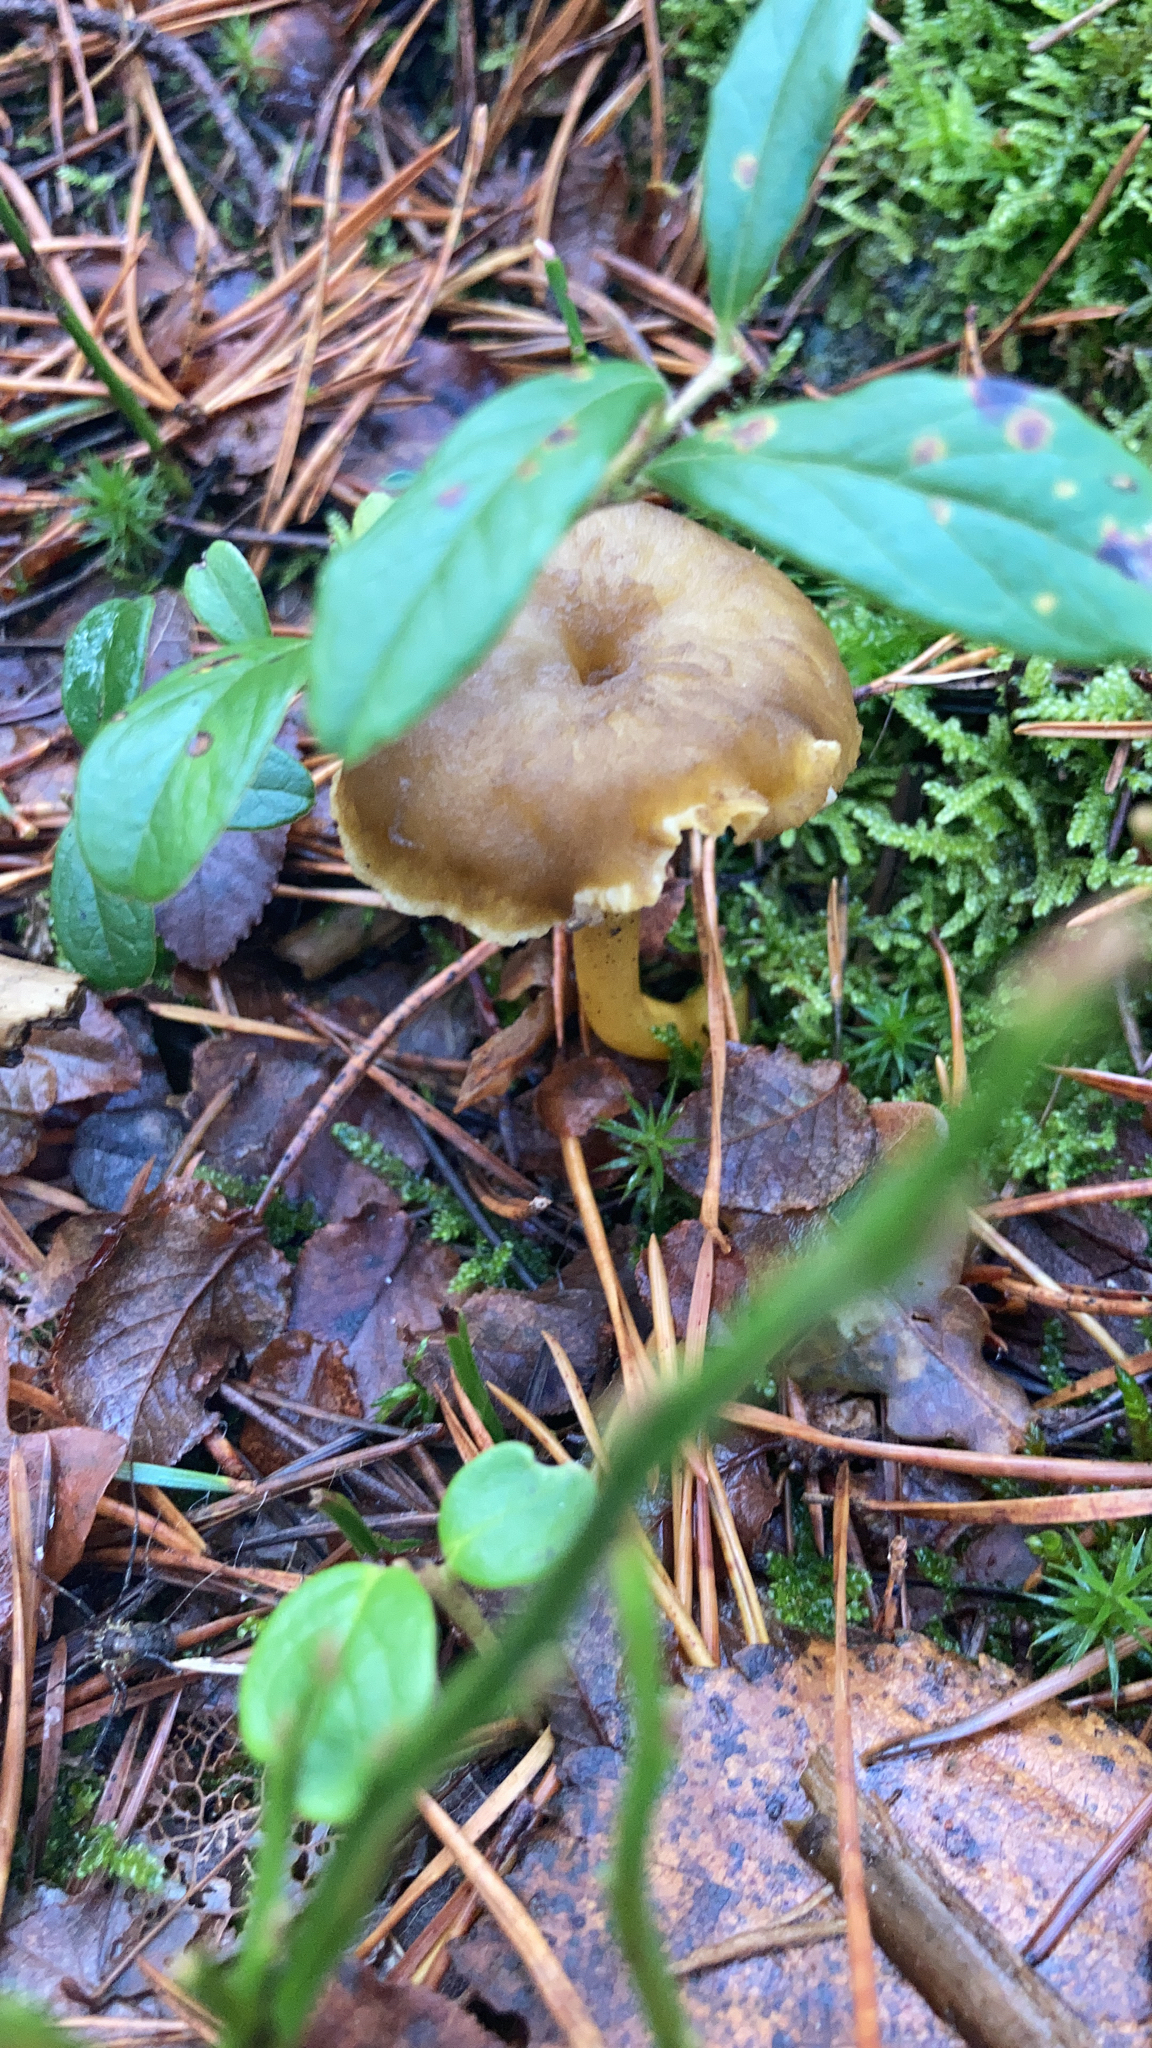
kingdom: Fungi
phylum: Basidiomycota
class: Agaricomycetes
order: Cantharellales
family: Hydnaceae
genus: Craterellus
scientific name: Craterellus tubaeformis
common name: Yellowfoot
